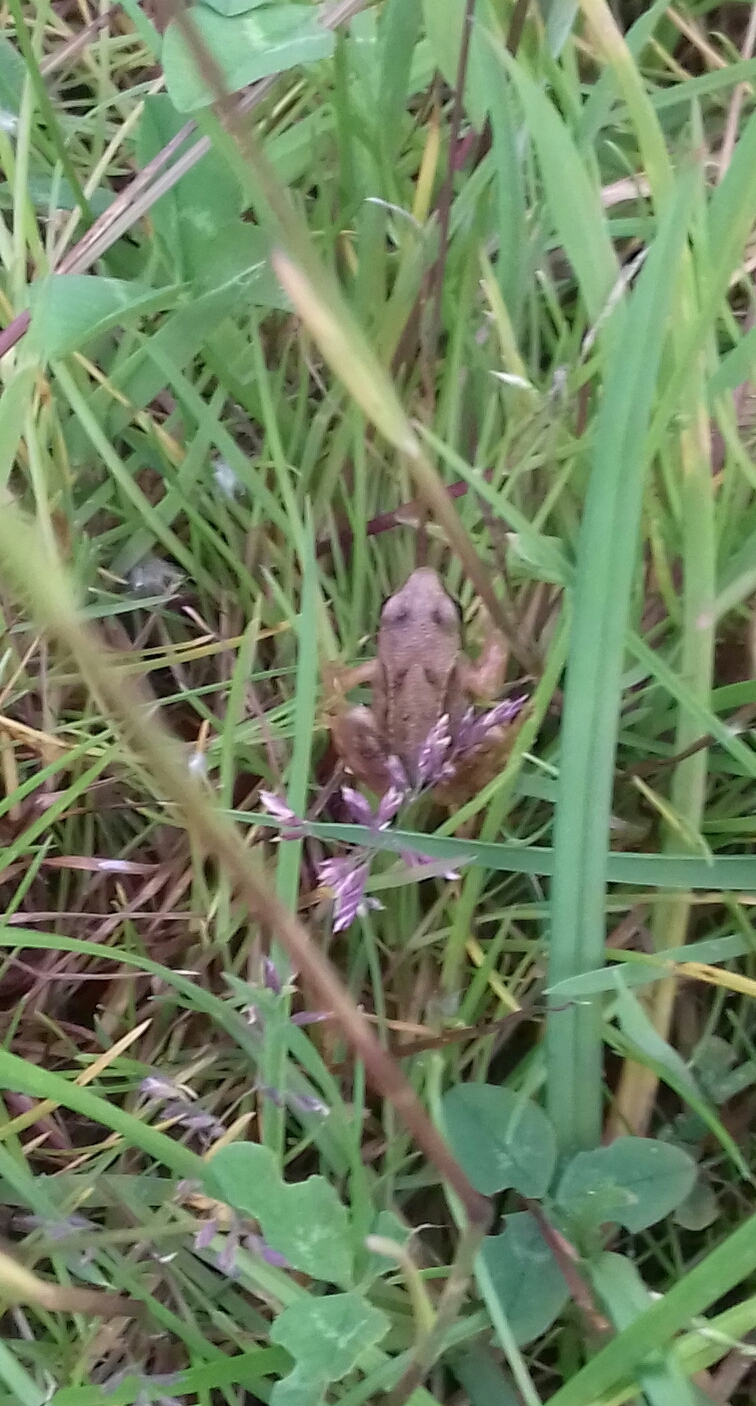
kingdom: Animalia
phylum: Chordata
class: Amphibia
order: Anura
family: Ranidae
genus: Rana
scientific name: Rana temporaria
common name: Common frog
